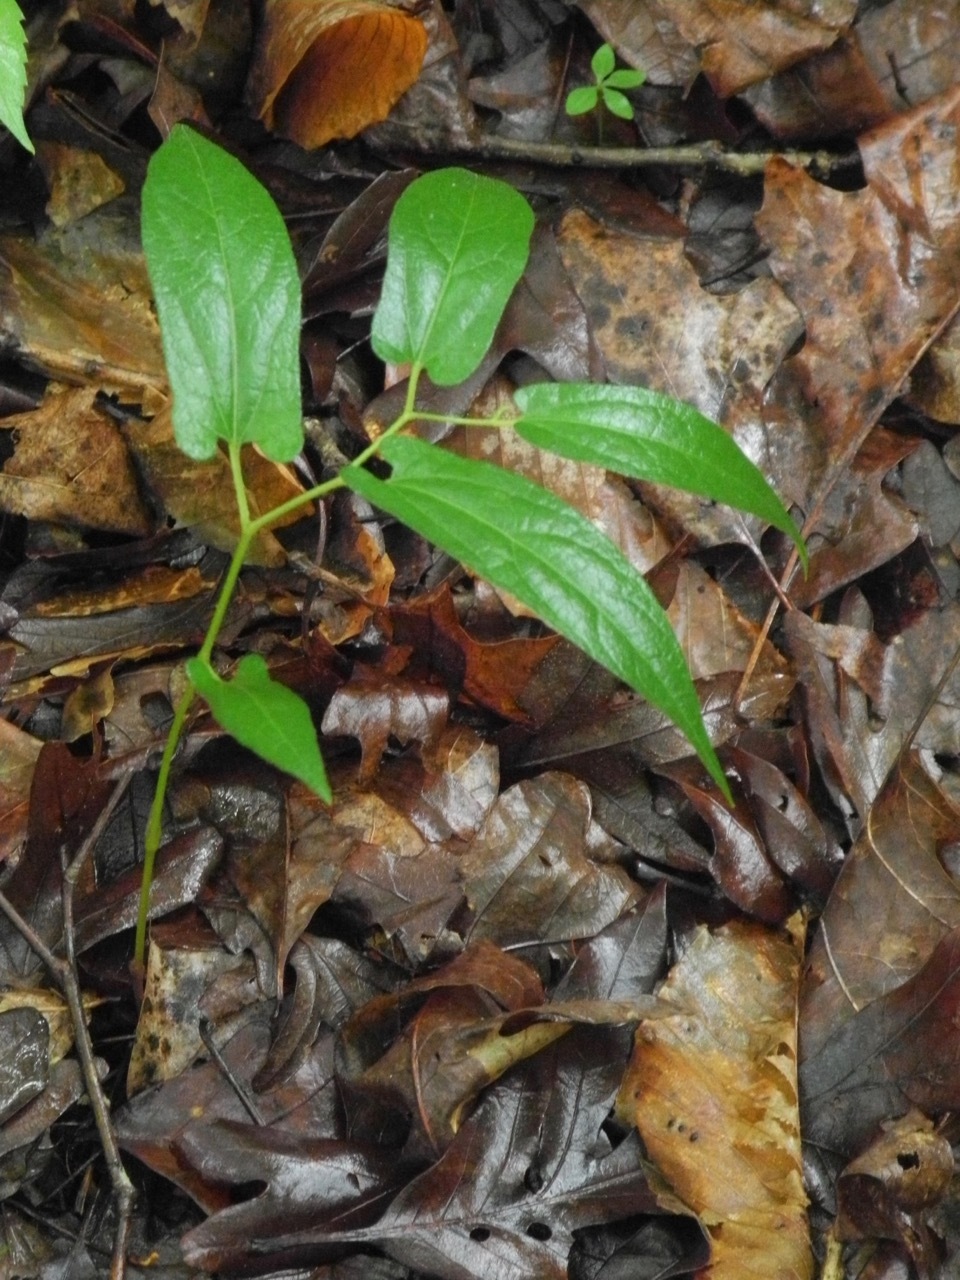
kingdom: Plantae
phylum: Tracheophyta
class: Magnoliopsida
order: Piperales
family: Aristolochiaceae
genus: Endodeca
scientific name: Endodeca serpentaria
